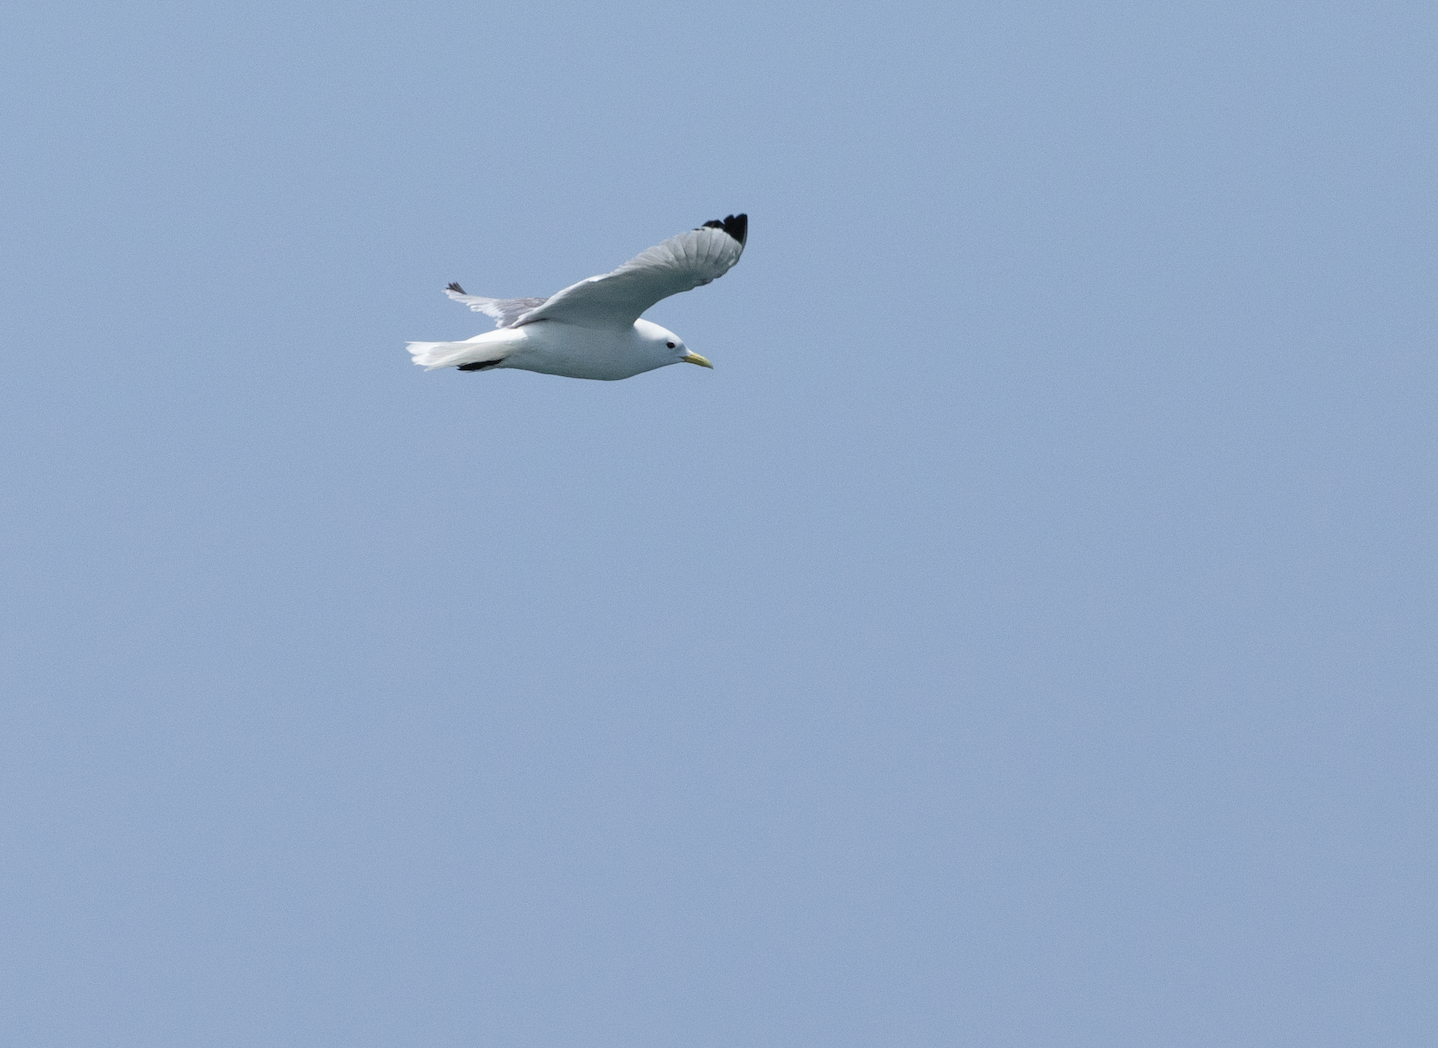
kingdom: Animalia
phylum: Chordata
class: Aves
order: Charadriiformes
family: Laridae
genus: Rissa
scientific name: Rissa tridactyla
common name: Black-legged kittiwake
